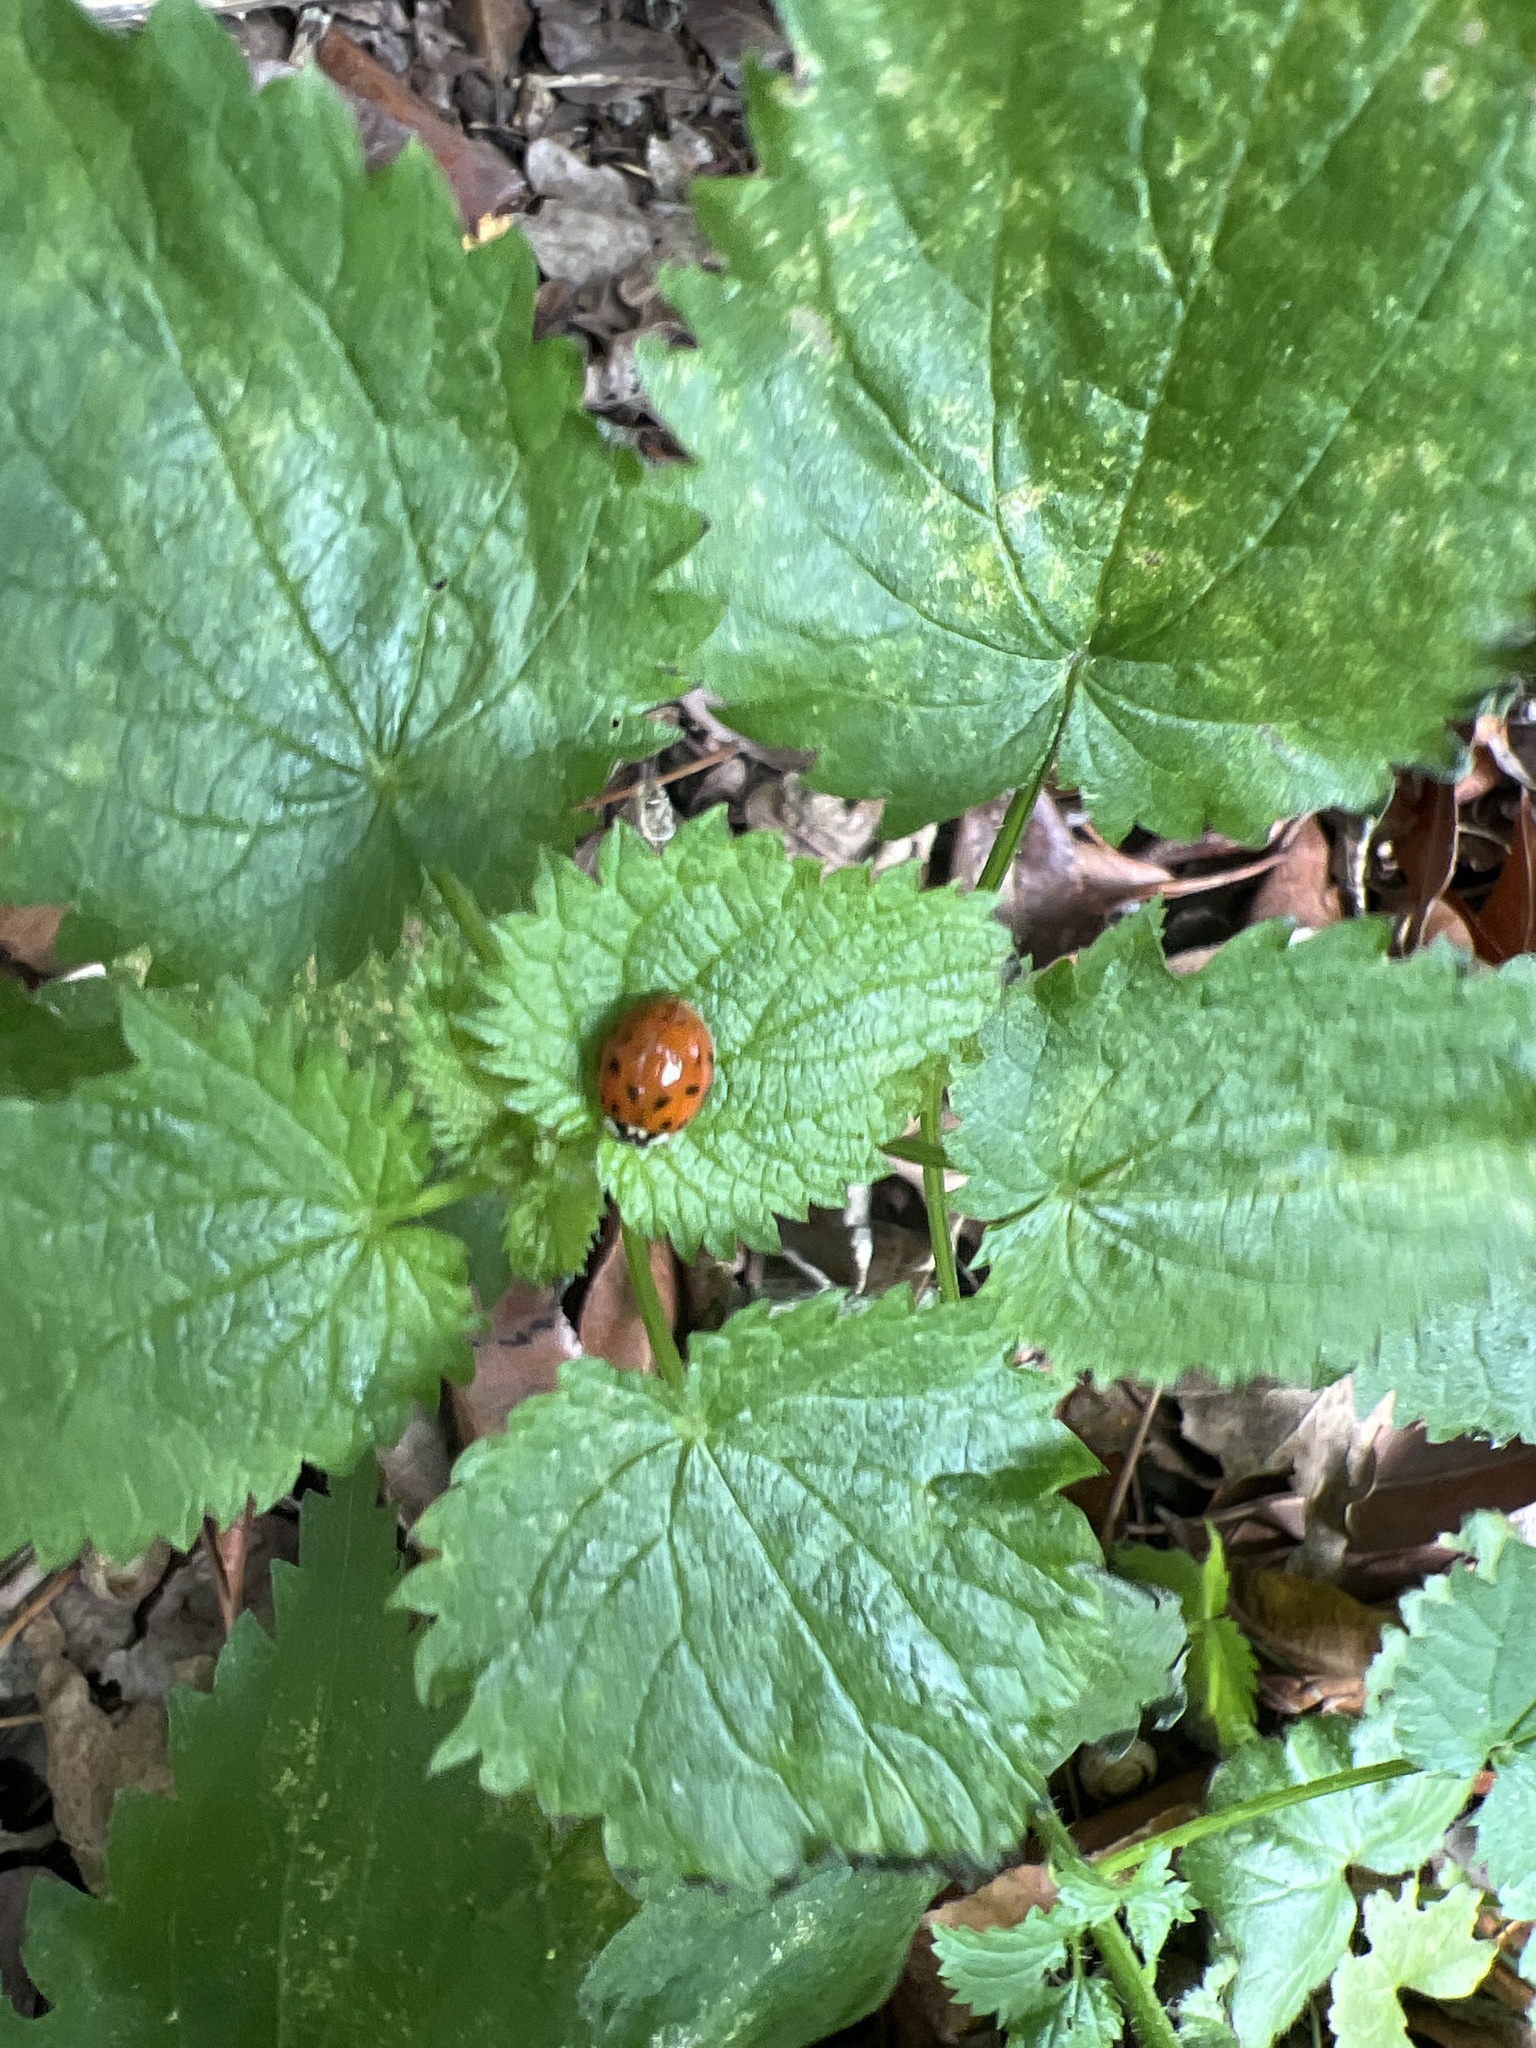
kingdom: Animalia
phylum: Arthropoda
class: Insecta
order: Coleoptera
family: Coccinellidae
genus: Harmonia
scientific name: Harmonia axyridis
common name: Harlequin ladybird
